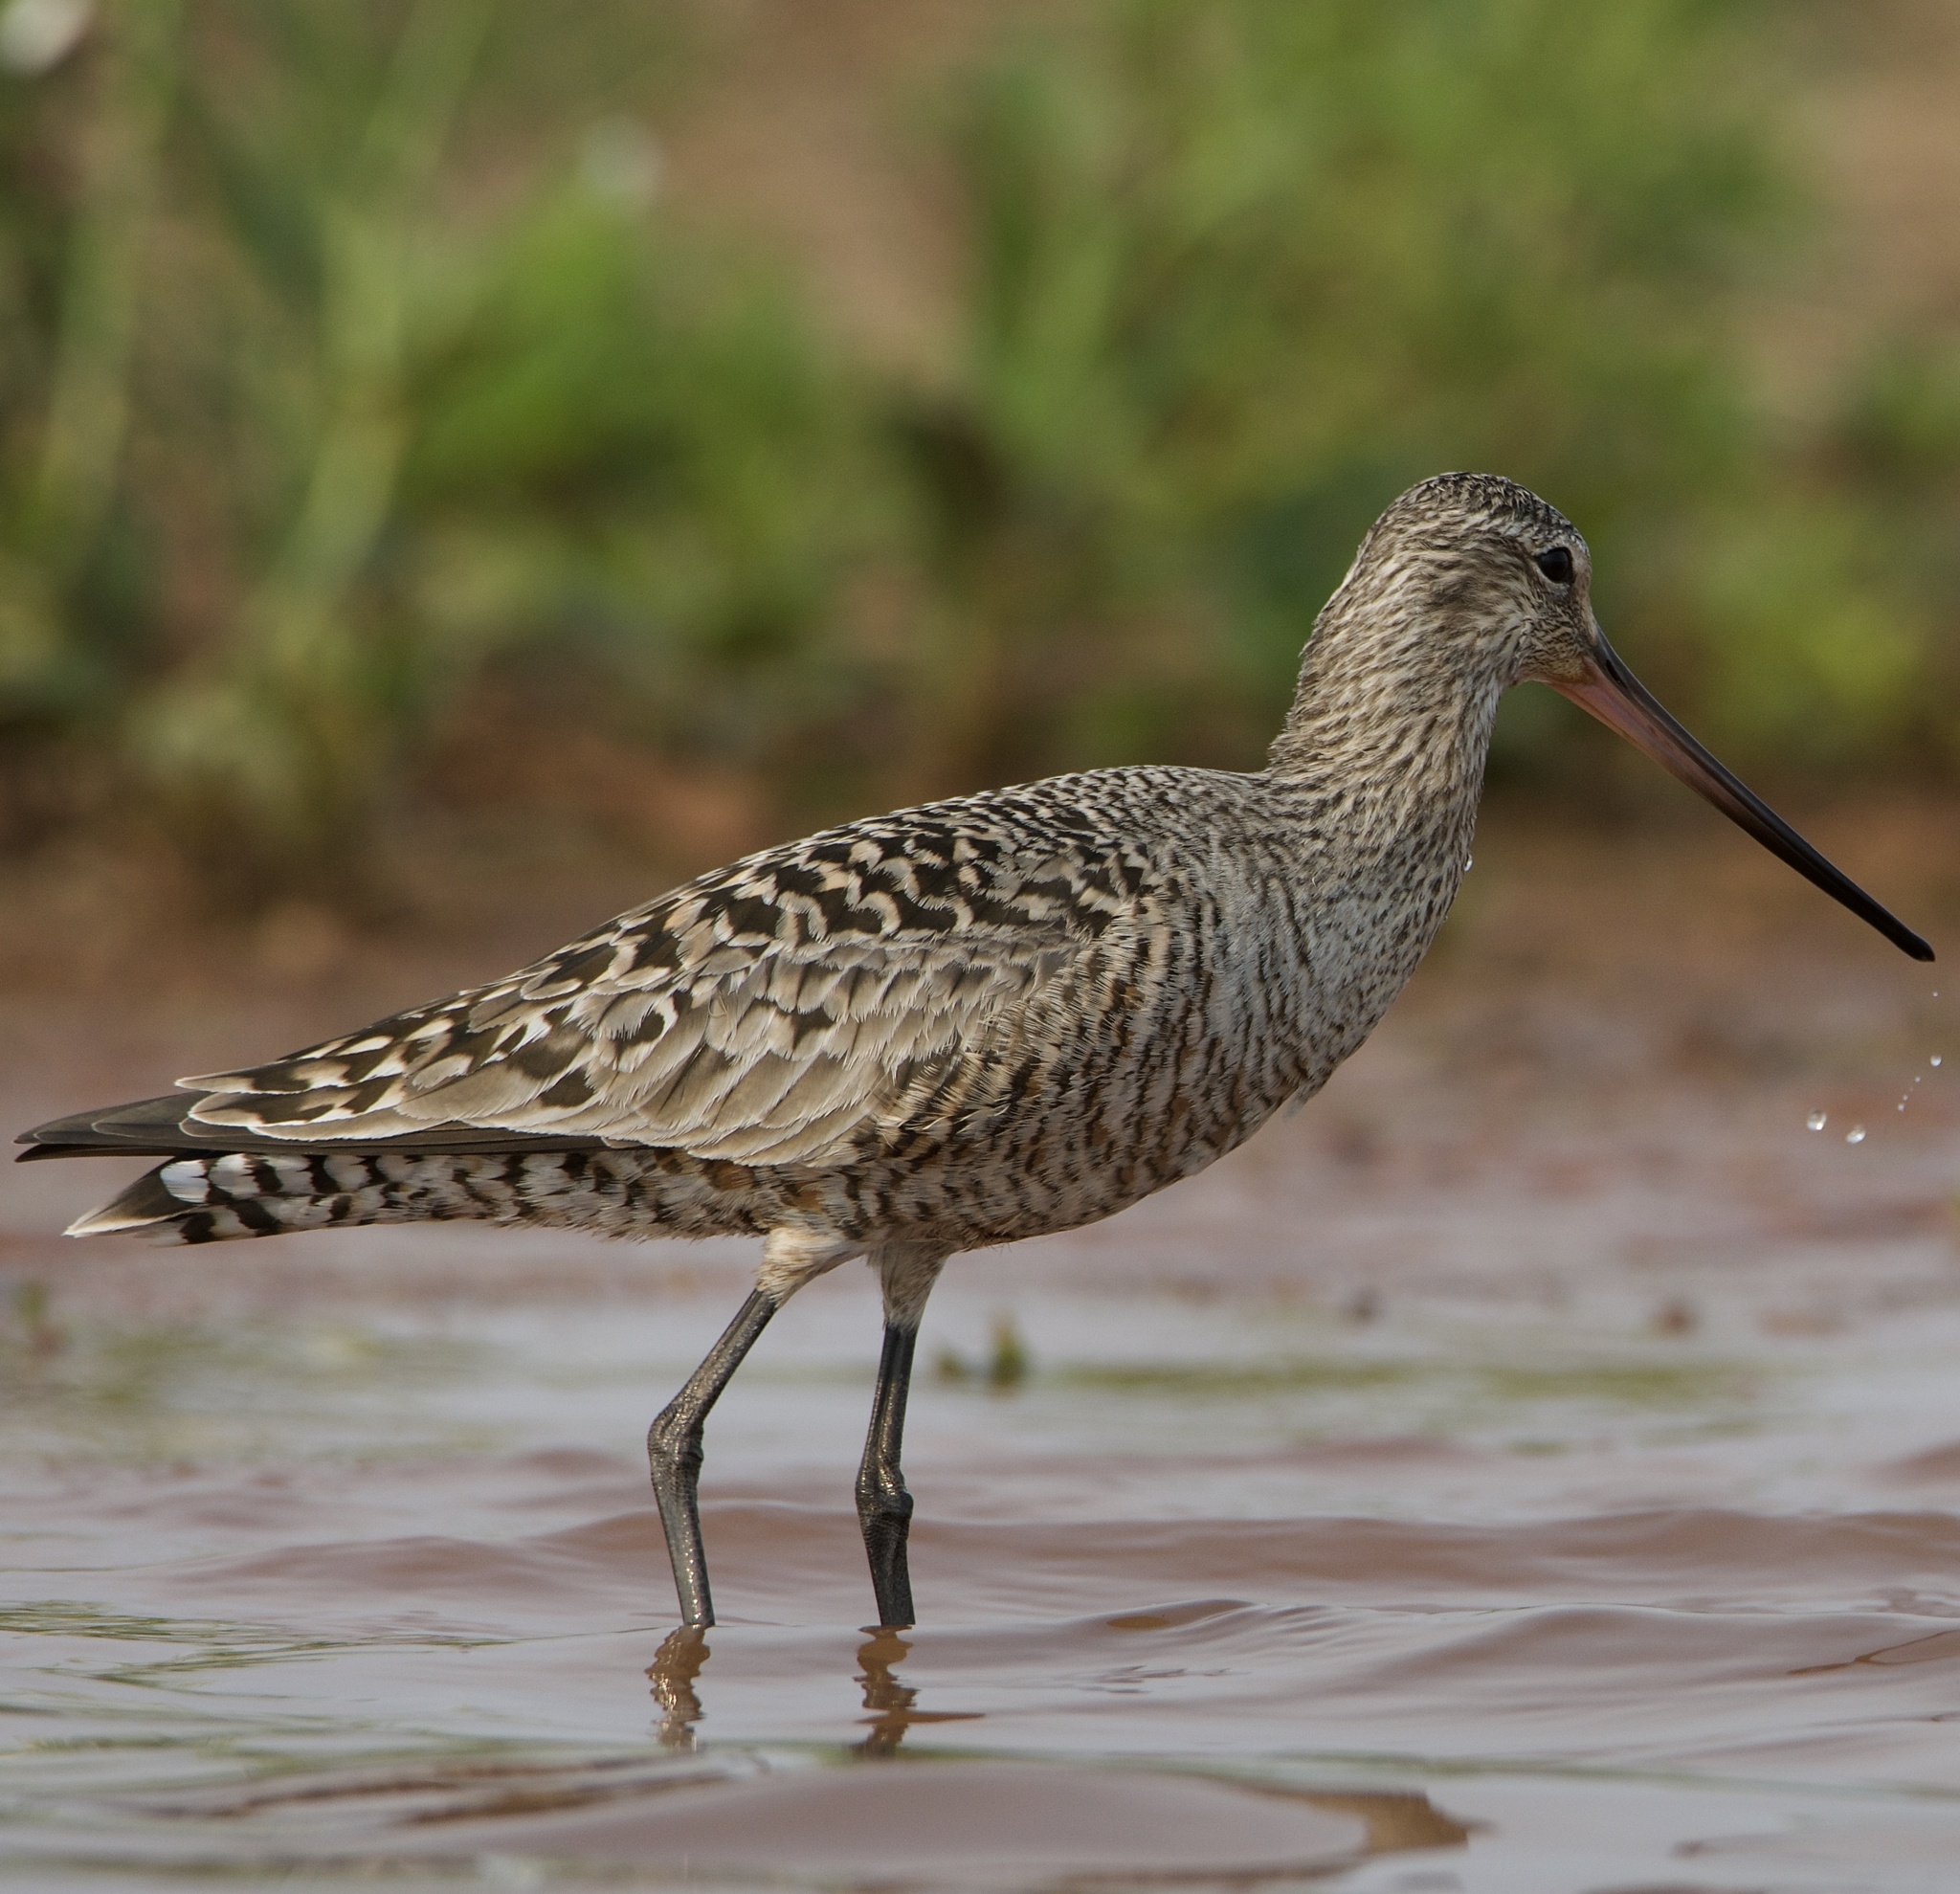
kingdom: Animalia
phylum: Chordata
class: Aves
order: Charadriiformes
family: Scolopacidae
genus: Limosa
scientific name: Limosa fedoa
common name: Marbled godwit
